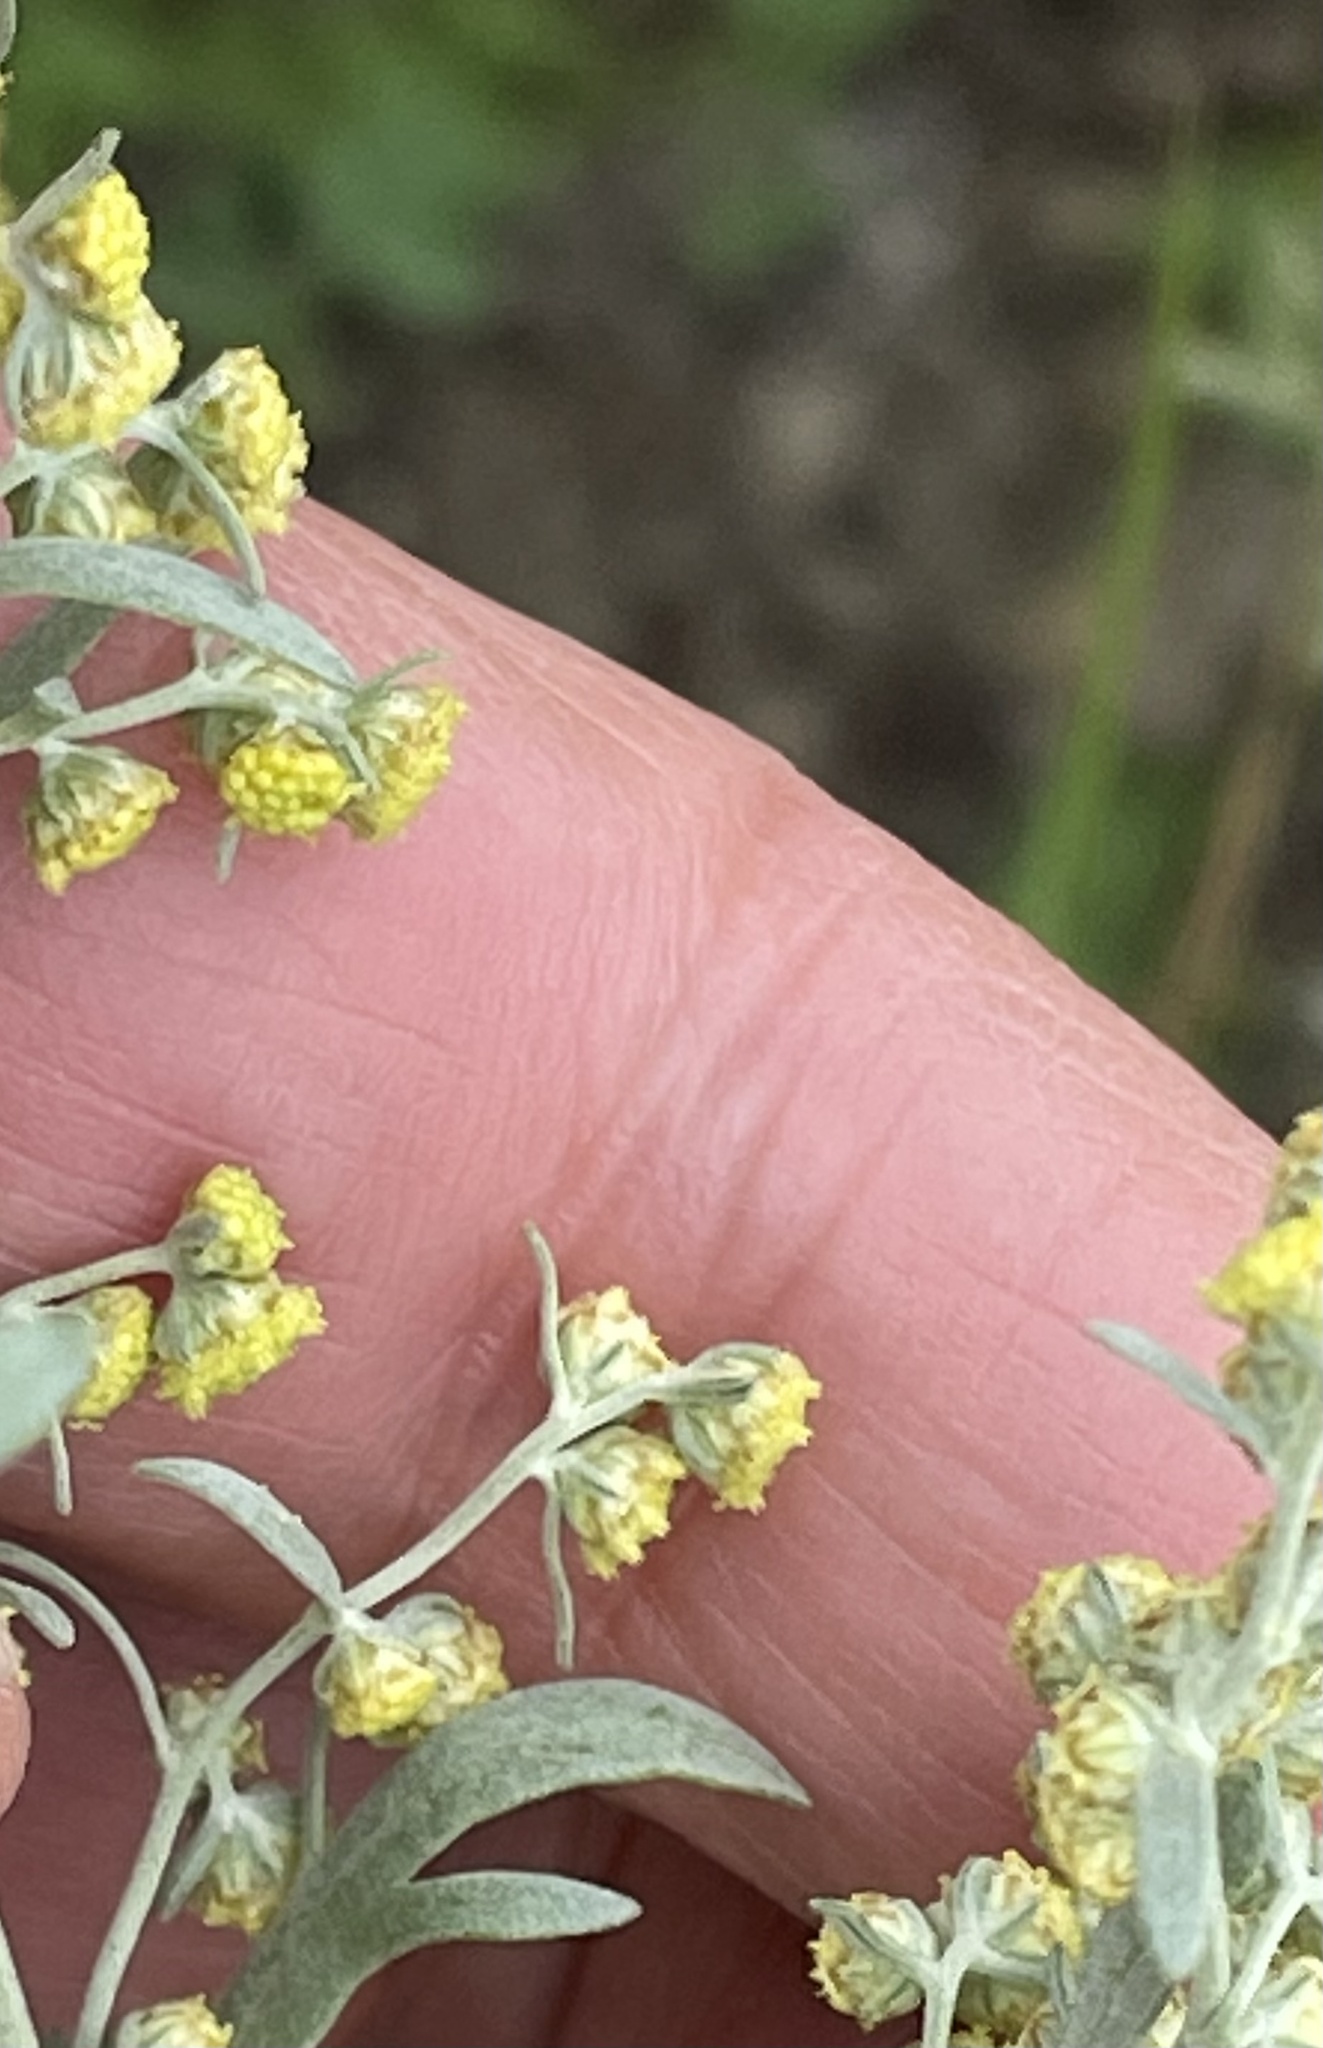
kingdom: Plantae
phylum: Tracheophyta
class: Magnoliopsida
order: Asterales
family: Asteraceae
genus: Artemisia
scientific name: Artemisia absinthium
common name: Wormwood
